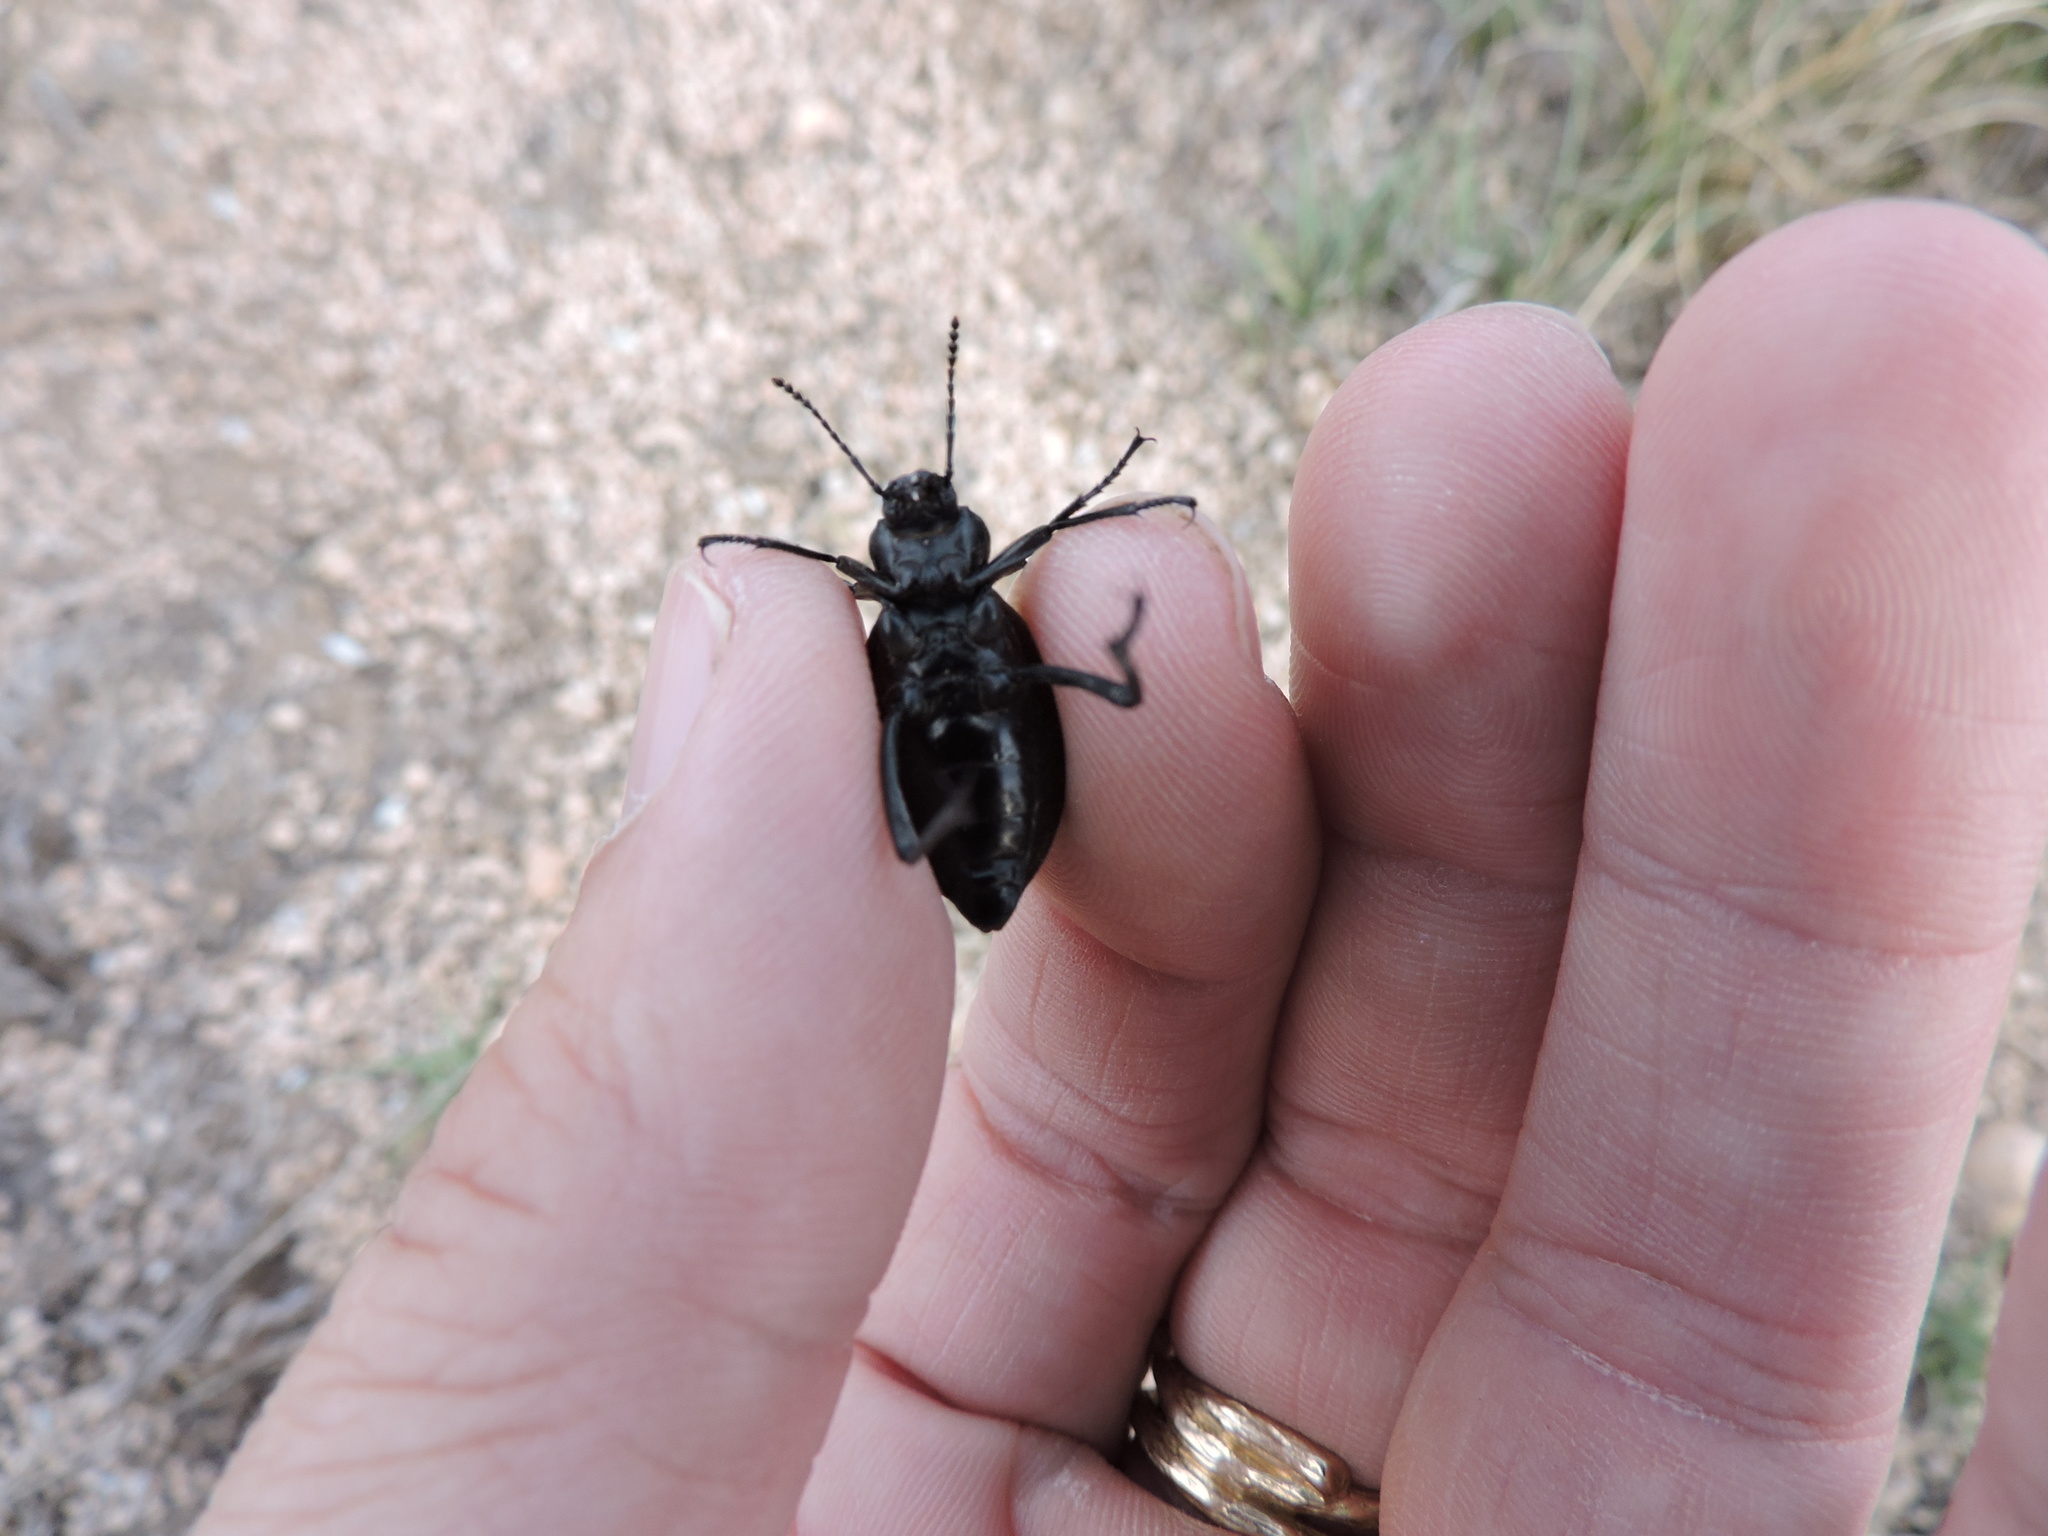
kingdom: Animalia
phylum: Arthropoda
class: Insecta
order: Coleoptera
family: Tenebrionidae
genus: Eleodes
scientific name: Eleodes hispilabris
